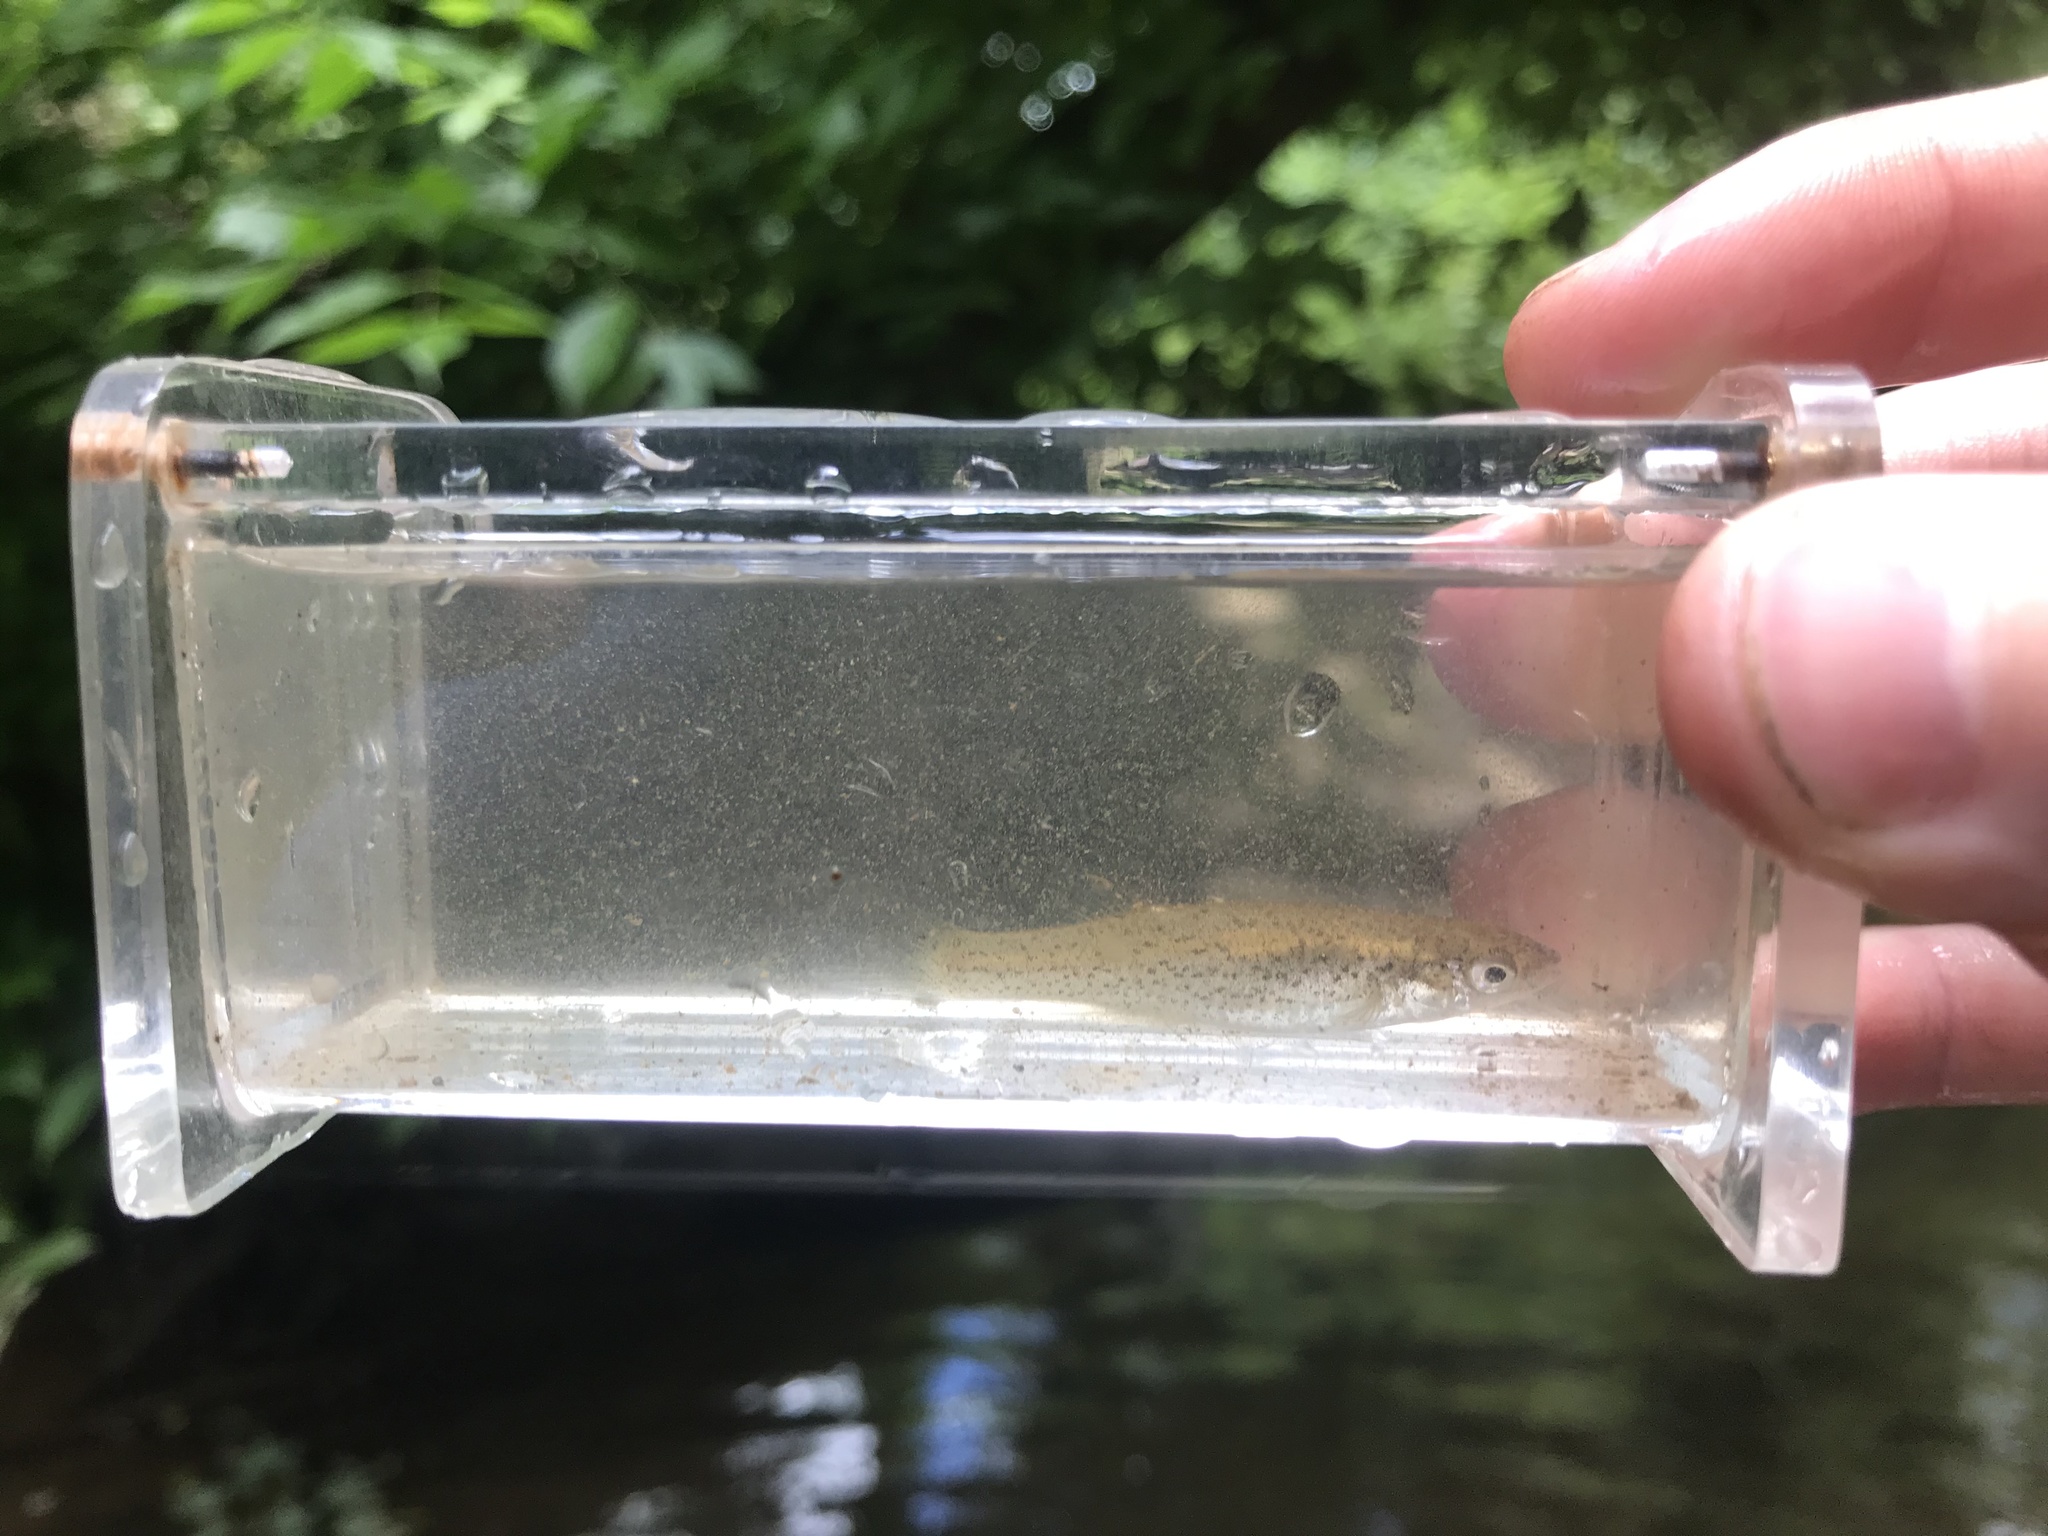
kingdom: Animalia
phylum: Chordata
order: Cyprinodontiformes
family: Fundulidae
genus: Fundulus
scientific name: Fundulus rathbuni
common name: Speckled killifish
